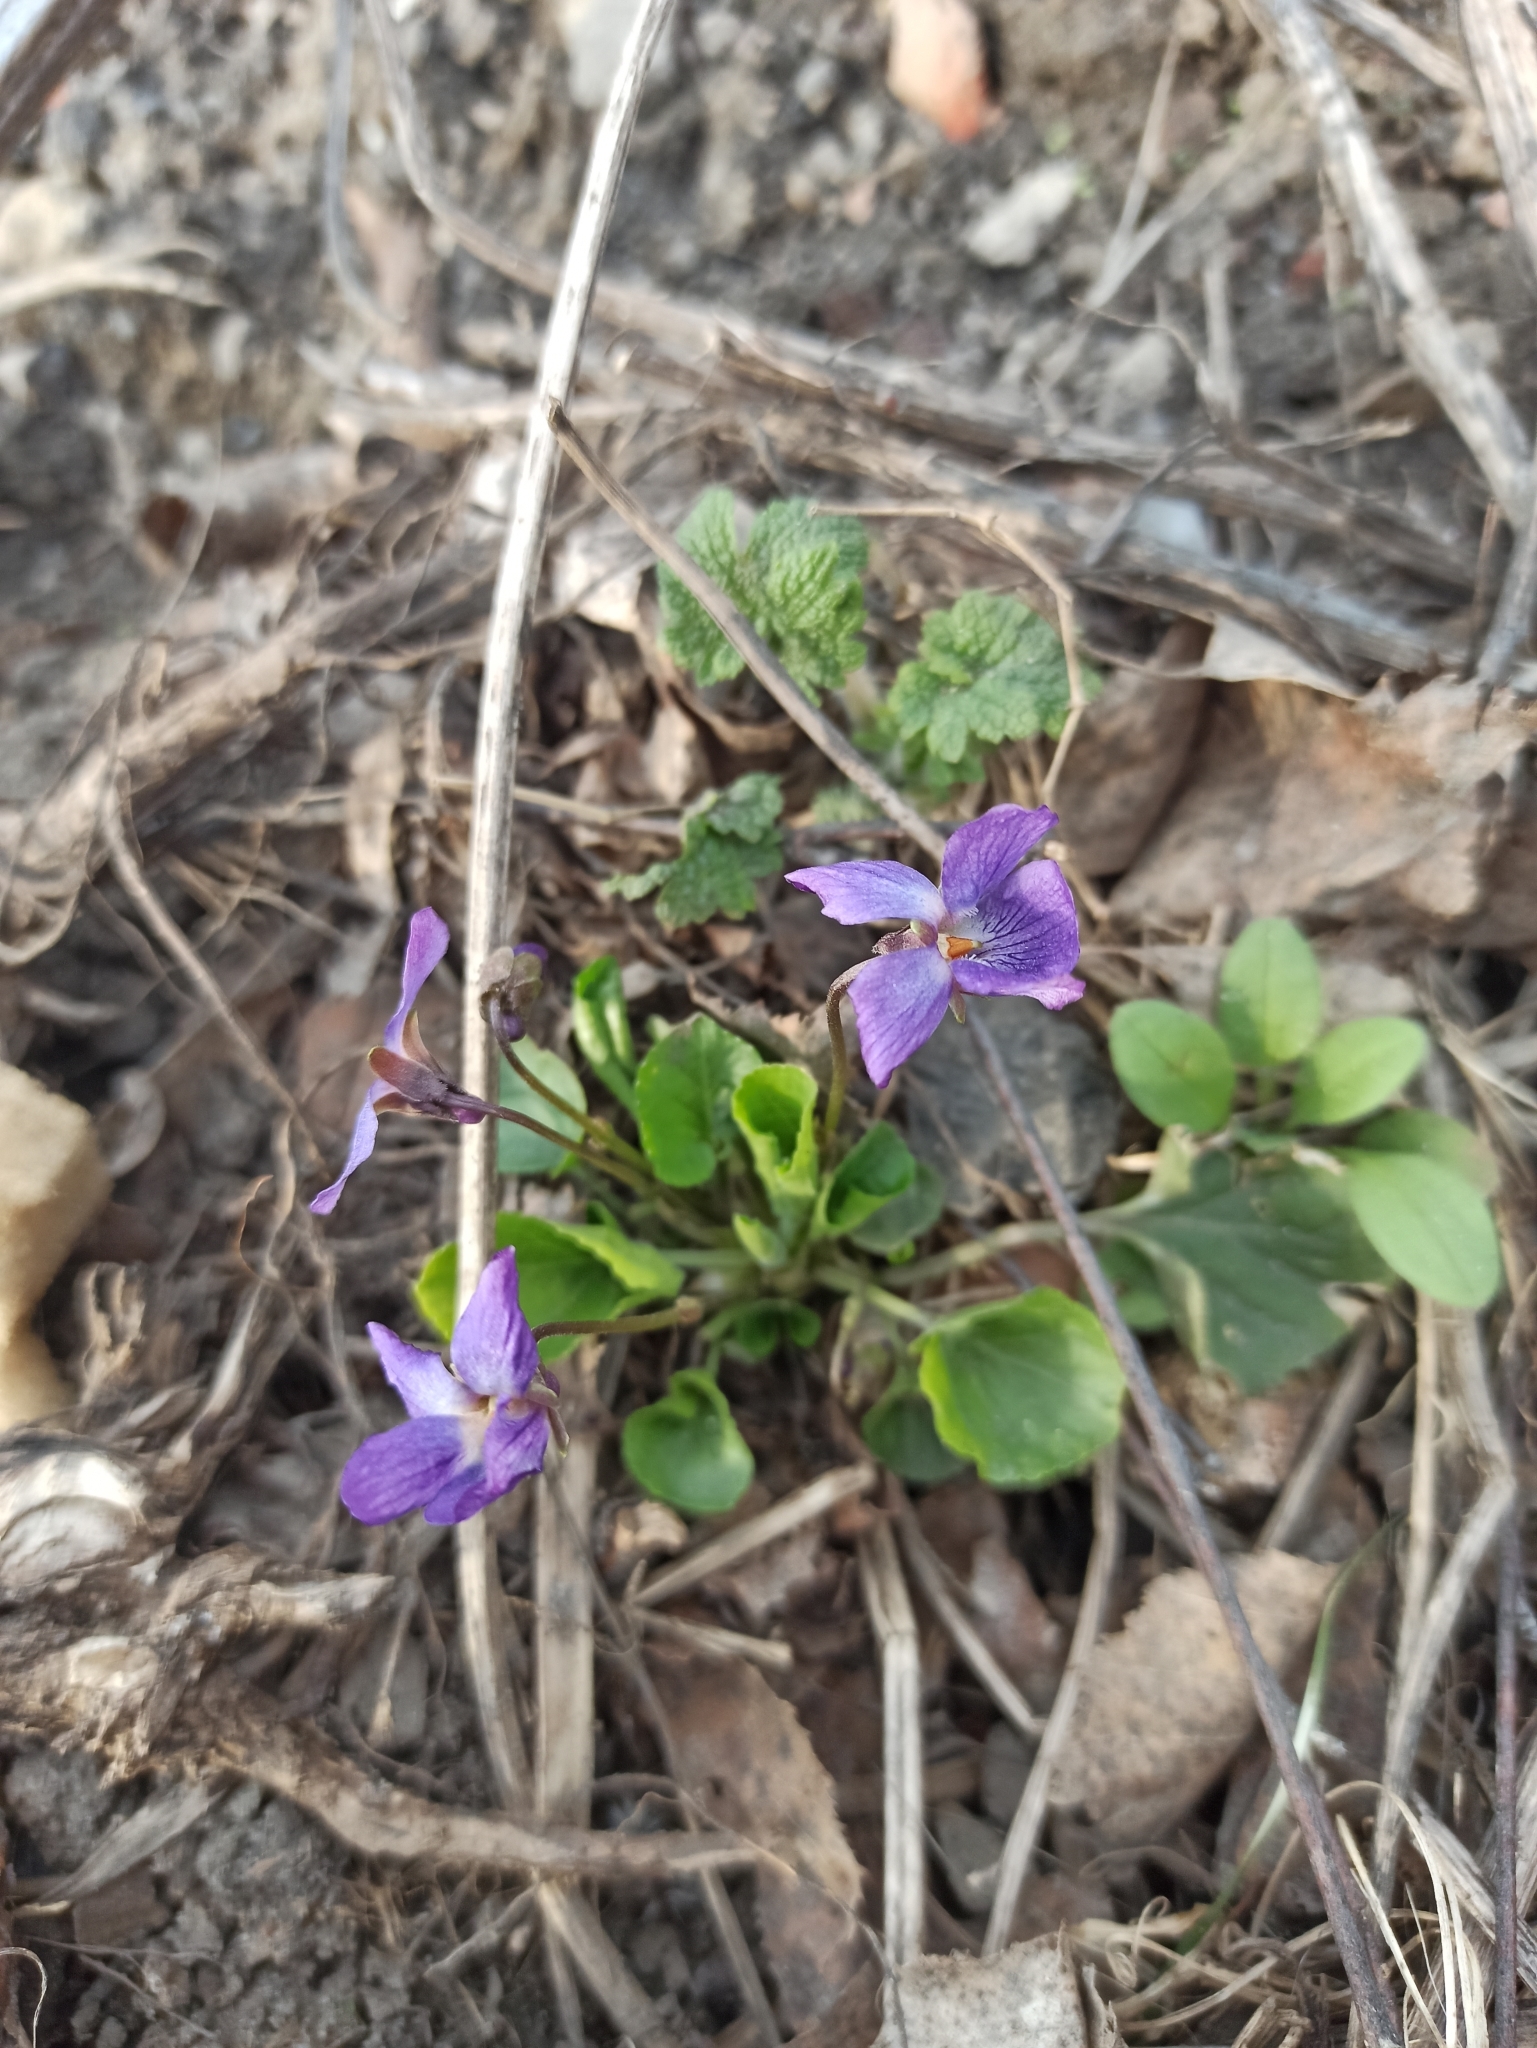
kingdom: Plantae
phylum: Tracheophyta
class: Magnoliopsida
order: Malpighiales
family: Violaceae
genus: Viola
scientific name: Viola odorata
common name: Sweet violet
